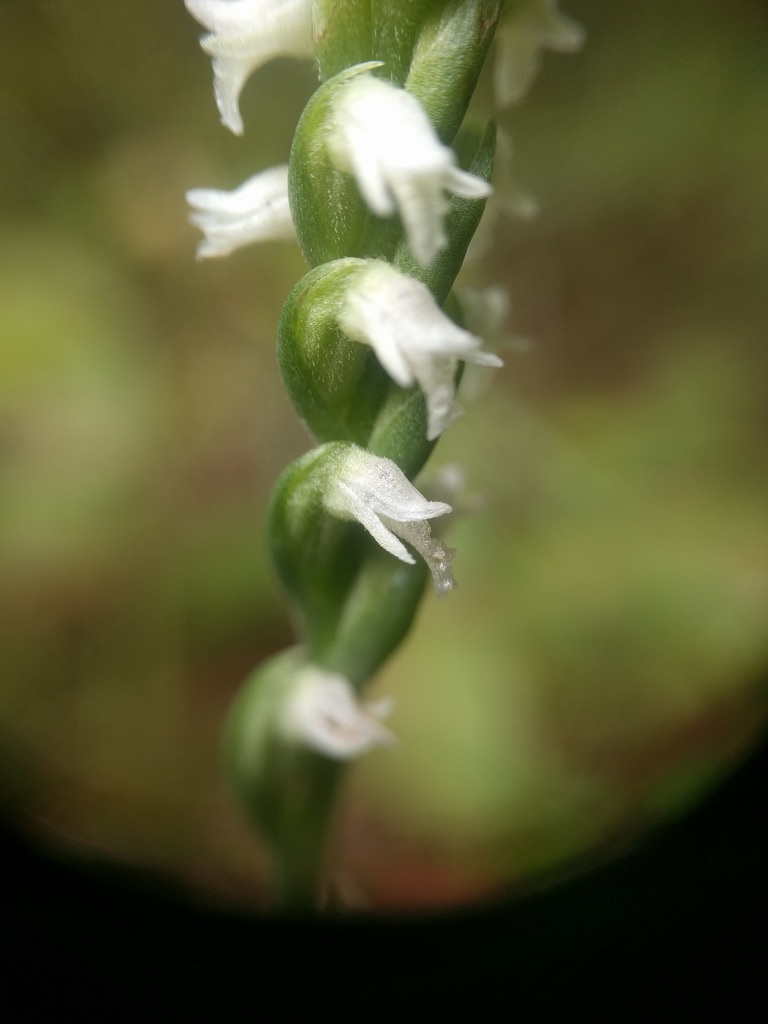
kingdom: Plantae
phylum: Tracheophyta
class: Liliopsida
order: Asparagales
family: Orchidaceae
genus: Spiranthes
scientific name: Spiranthes ovalis
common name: October ladies'-tresses
